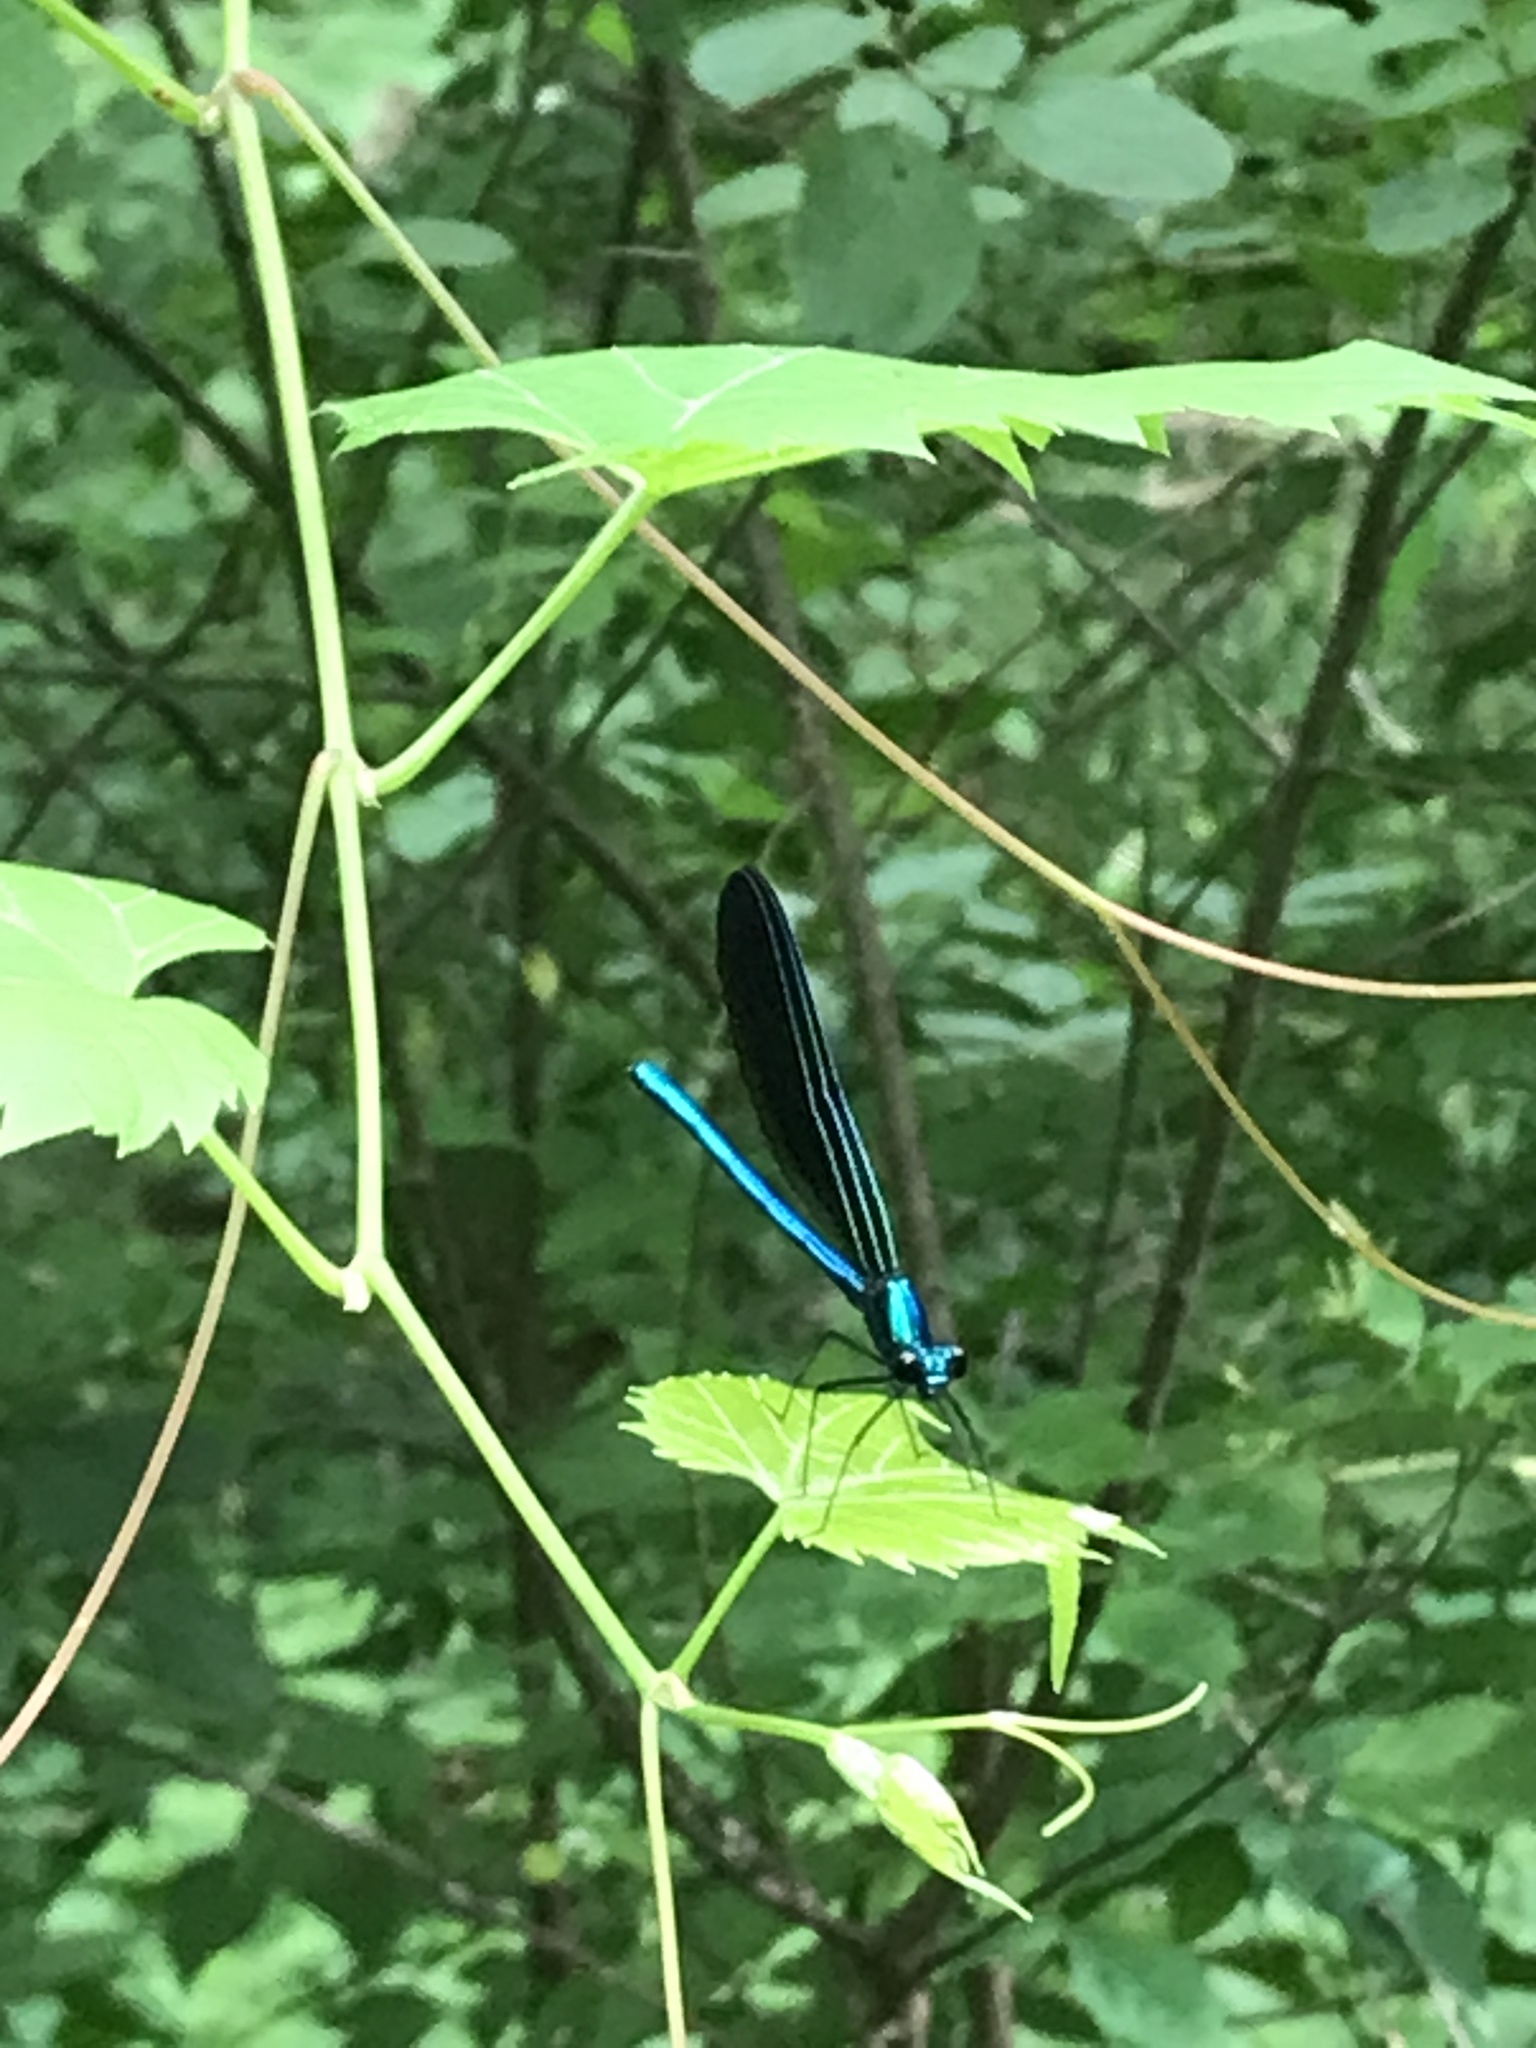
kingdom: Animalia
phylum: Arthropoda
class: Insecta
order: Odonata
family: Calopterygidae
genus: Calopteryx
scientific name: Calopteryx maculata
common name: Ebony jewelwing
